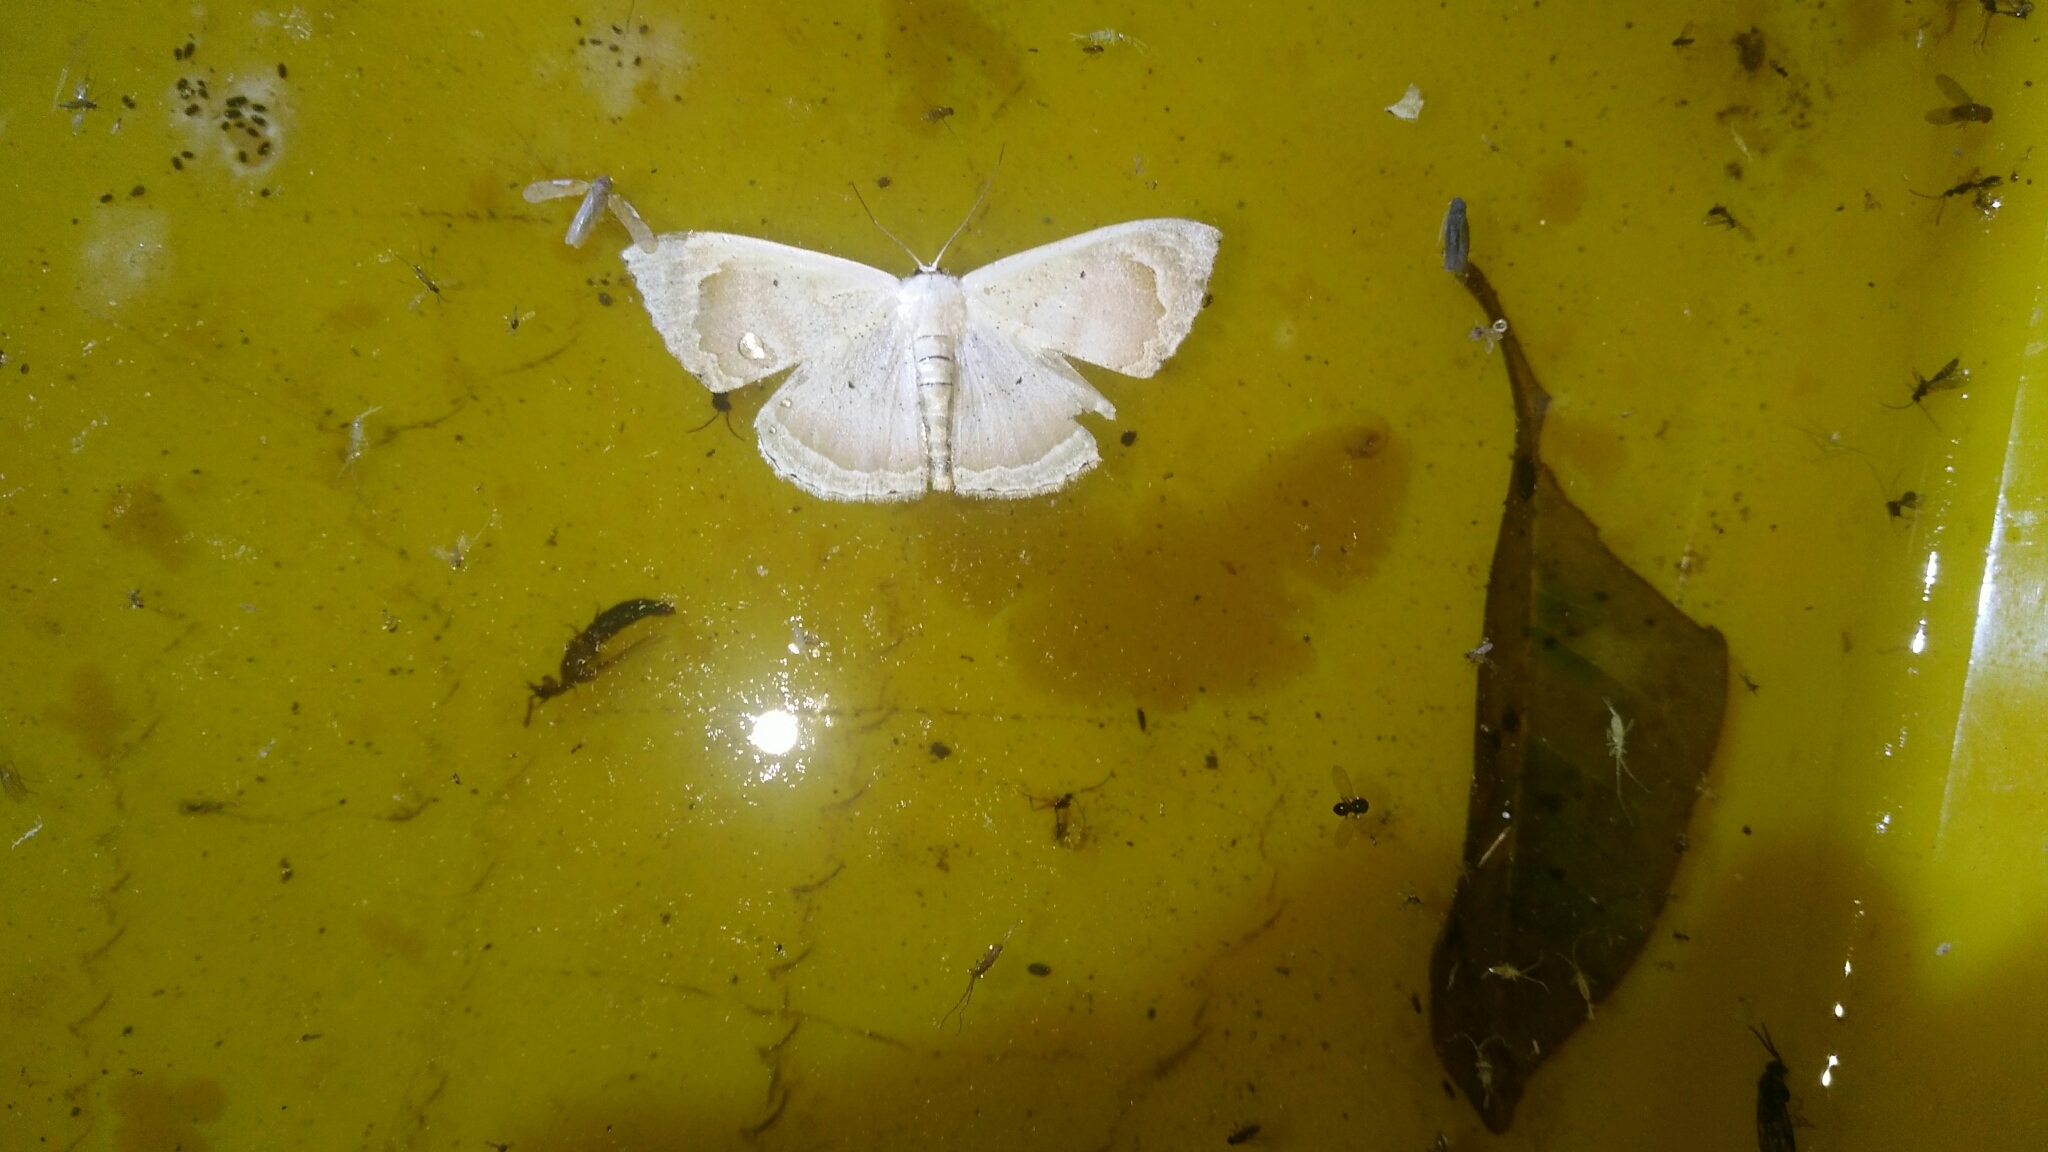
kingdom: Animalia
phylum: Arthropoda
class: Insecta
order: Lepidoptera
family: Geometridae
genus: Somatina
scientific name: Somatina rosacea
